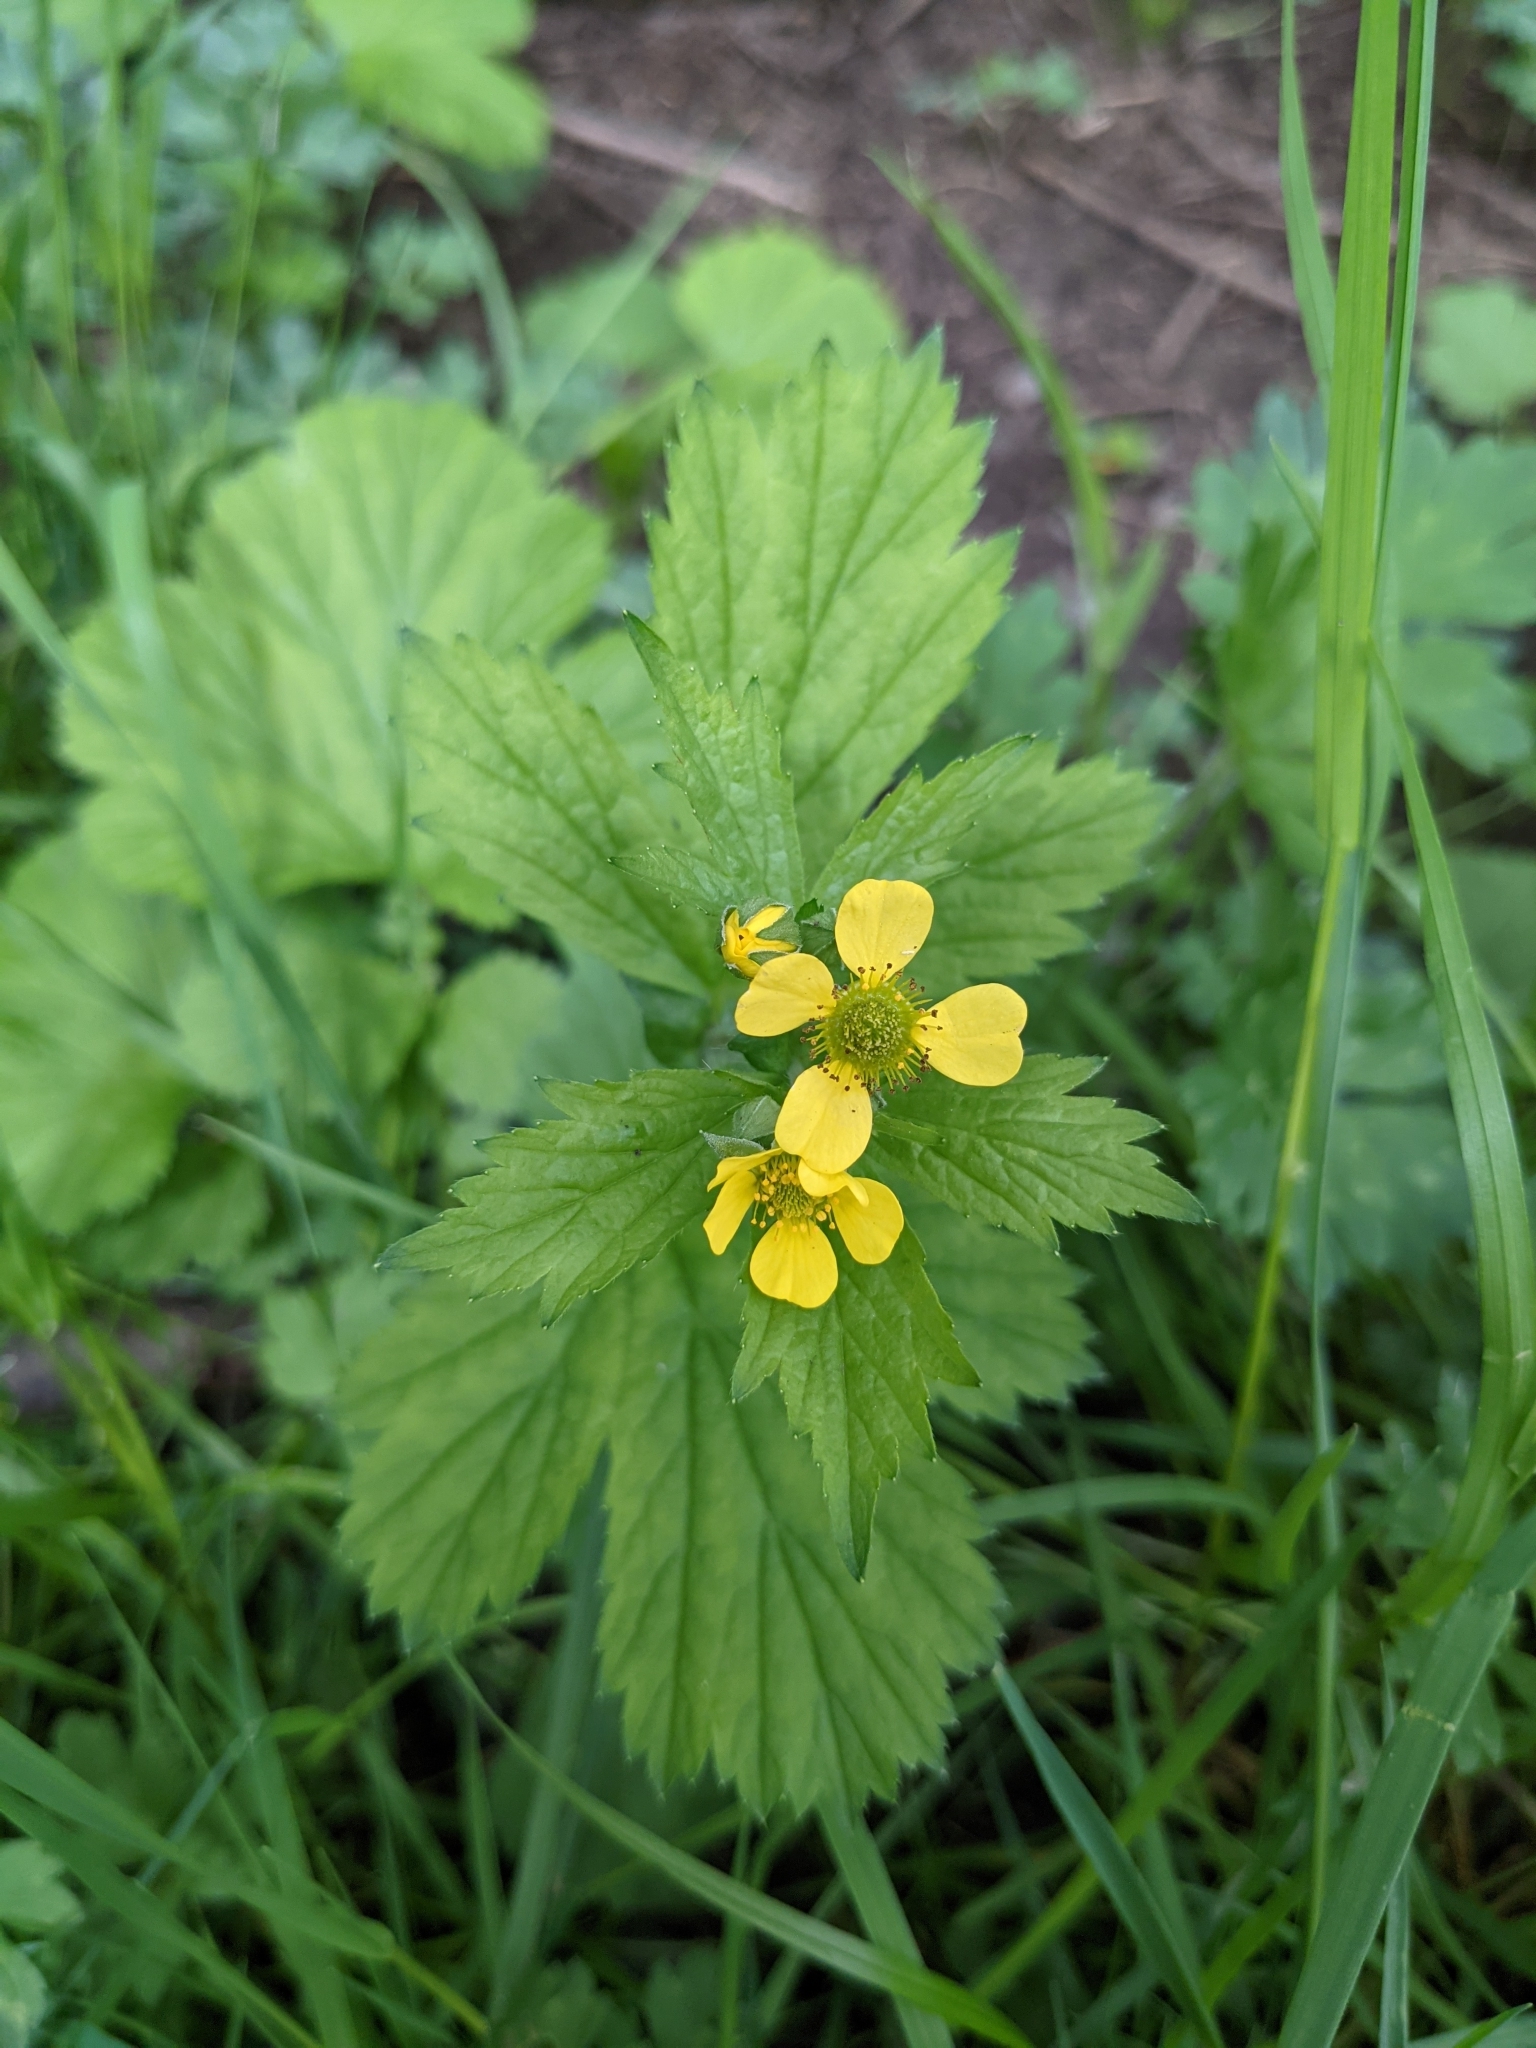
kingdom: Plantae
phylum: Tracheophyta
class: Magnoliopsida
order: Rosales
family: Rosaceae
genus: Geum
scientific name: Geum macrophyllum
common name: Large-leaved avens
